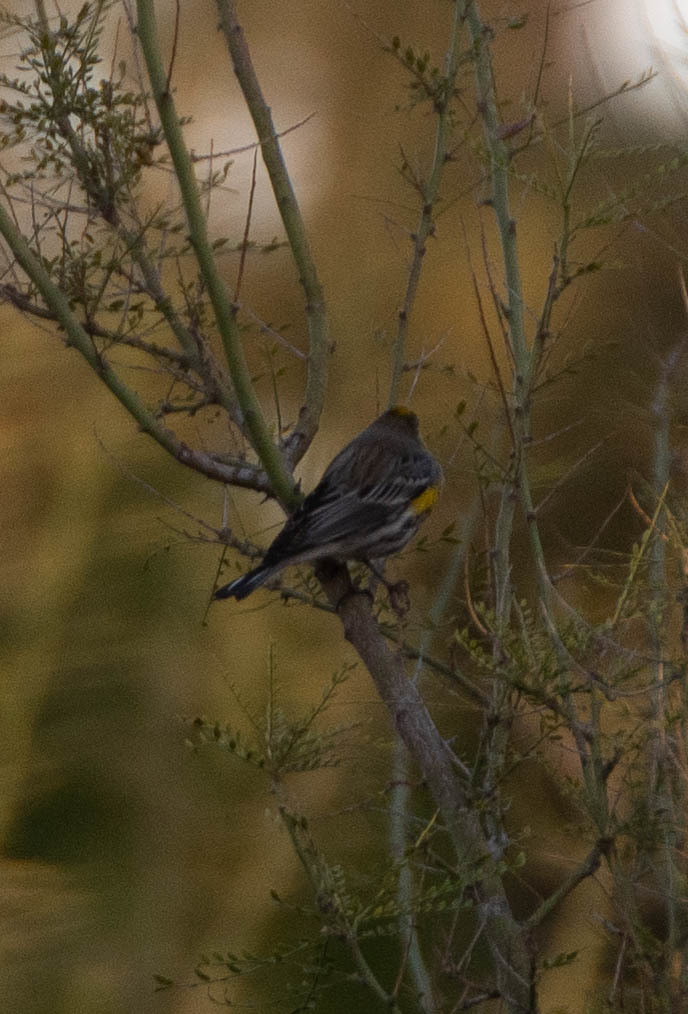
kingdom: Animalia
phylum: Chordata
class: Aves
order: Passeriformes
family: Parulidae
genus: Setophaga
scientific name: Setophaga coronata
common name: Myrtle warbler
